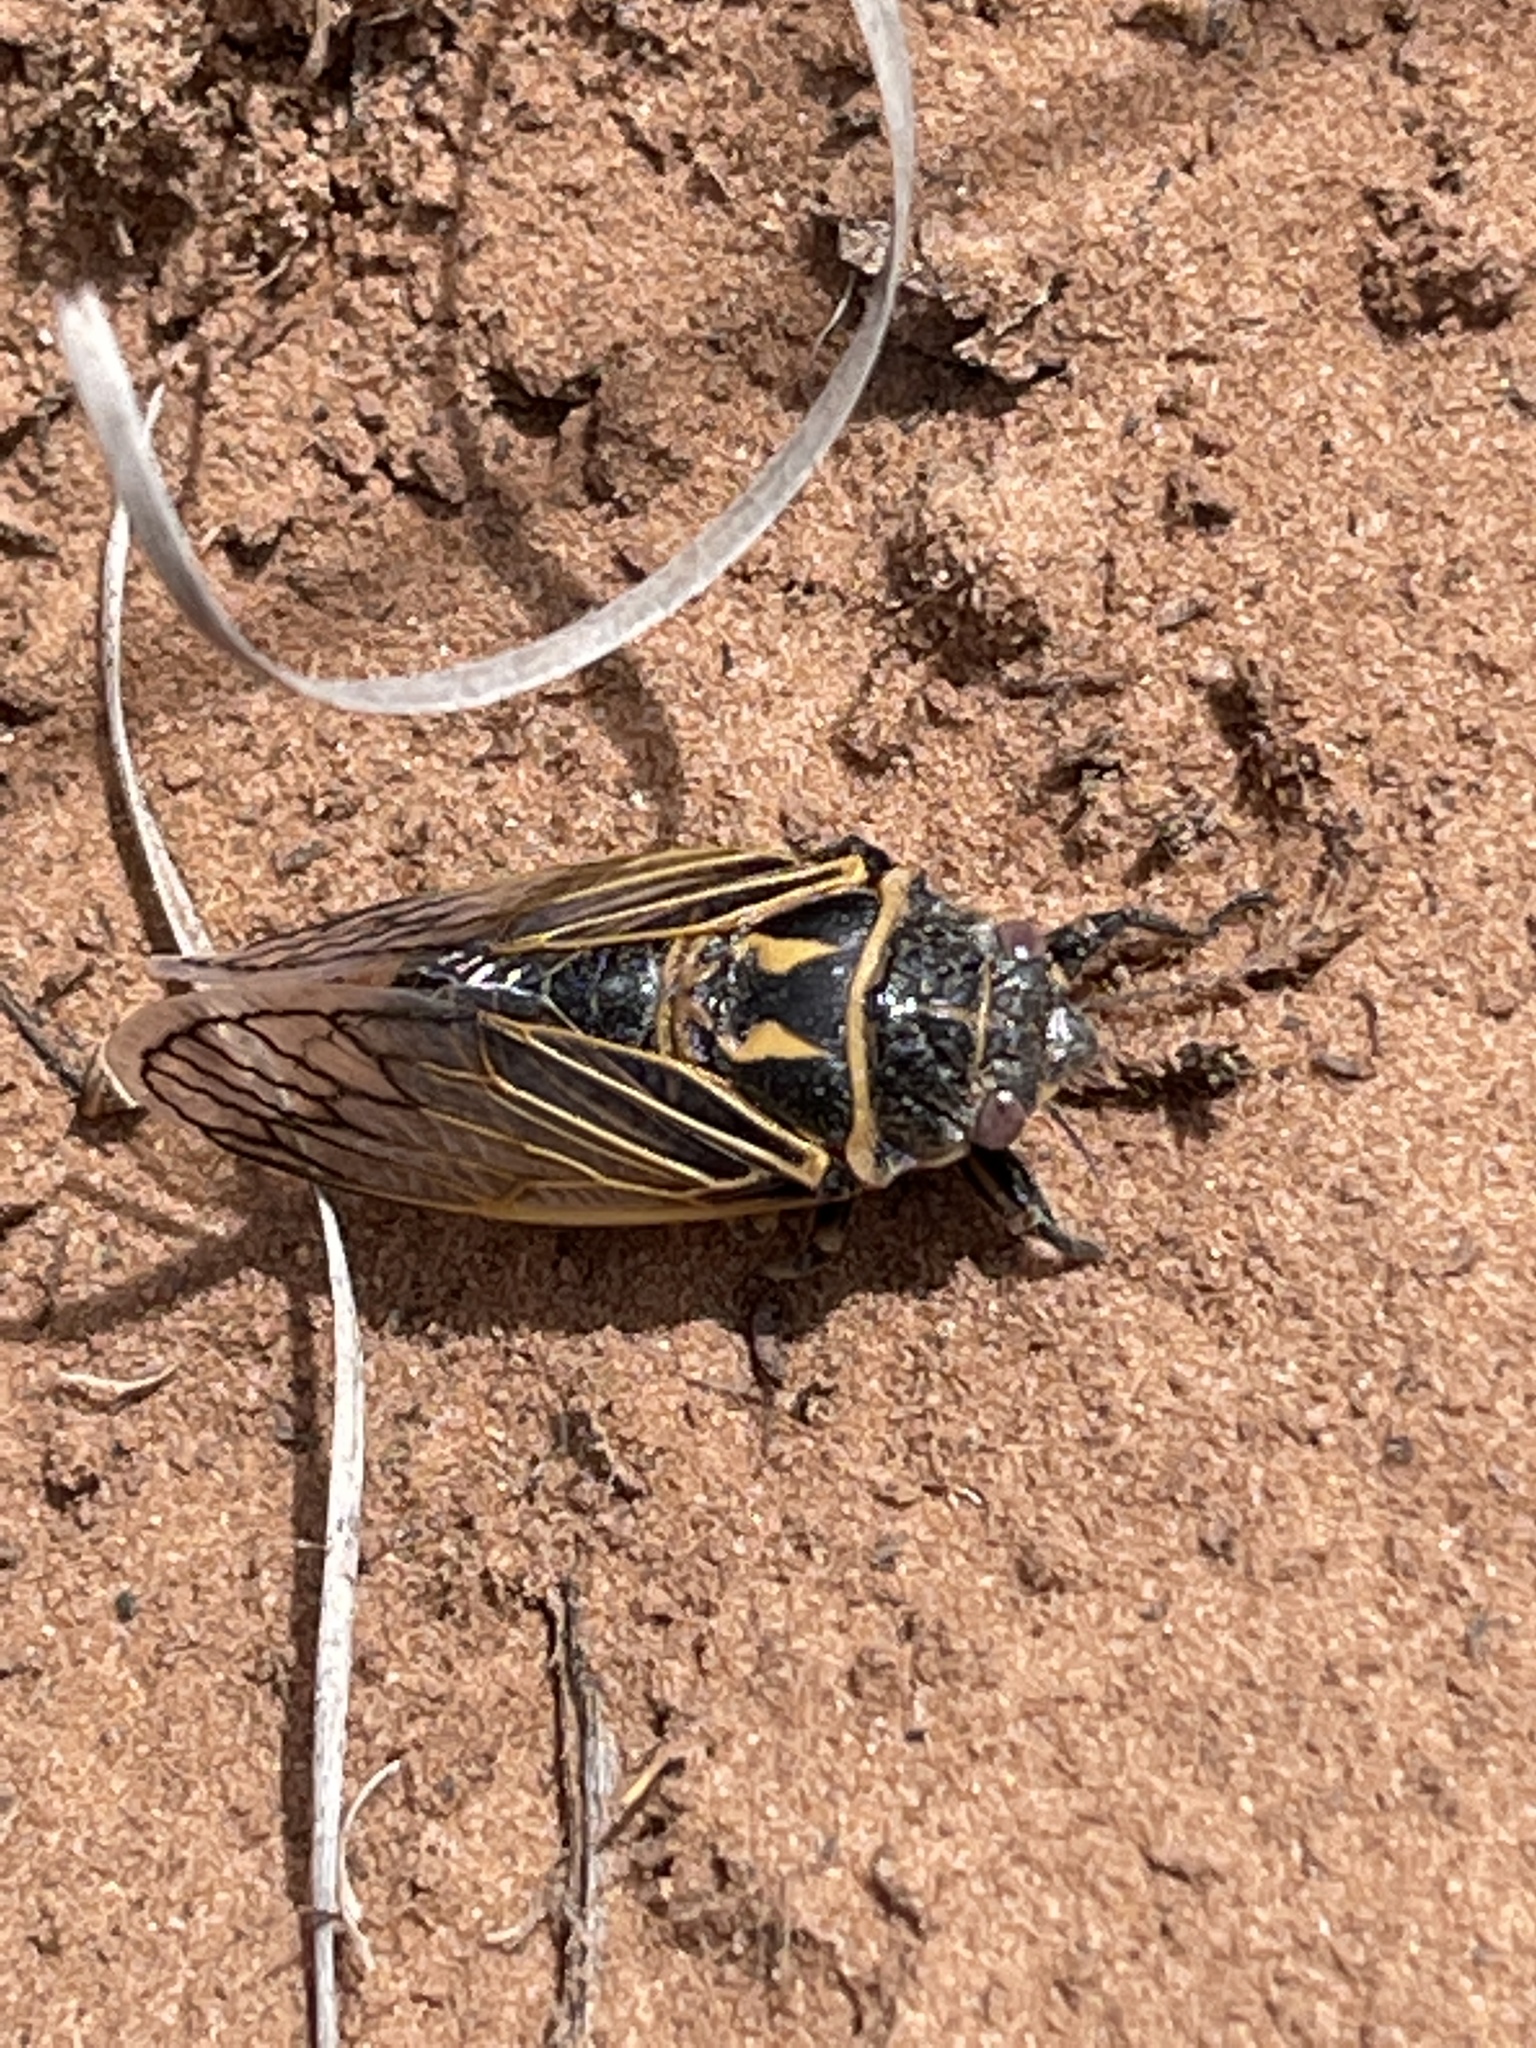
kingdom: Animalia
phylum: Arthropoda
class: Insecta
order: Hemiptera
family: Cicadidae
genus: Okanagana
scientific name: Okanagana synodica
